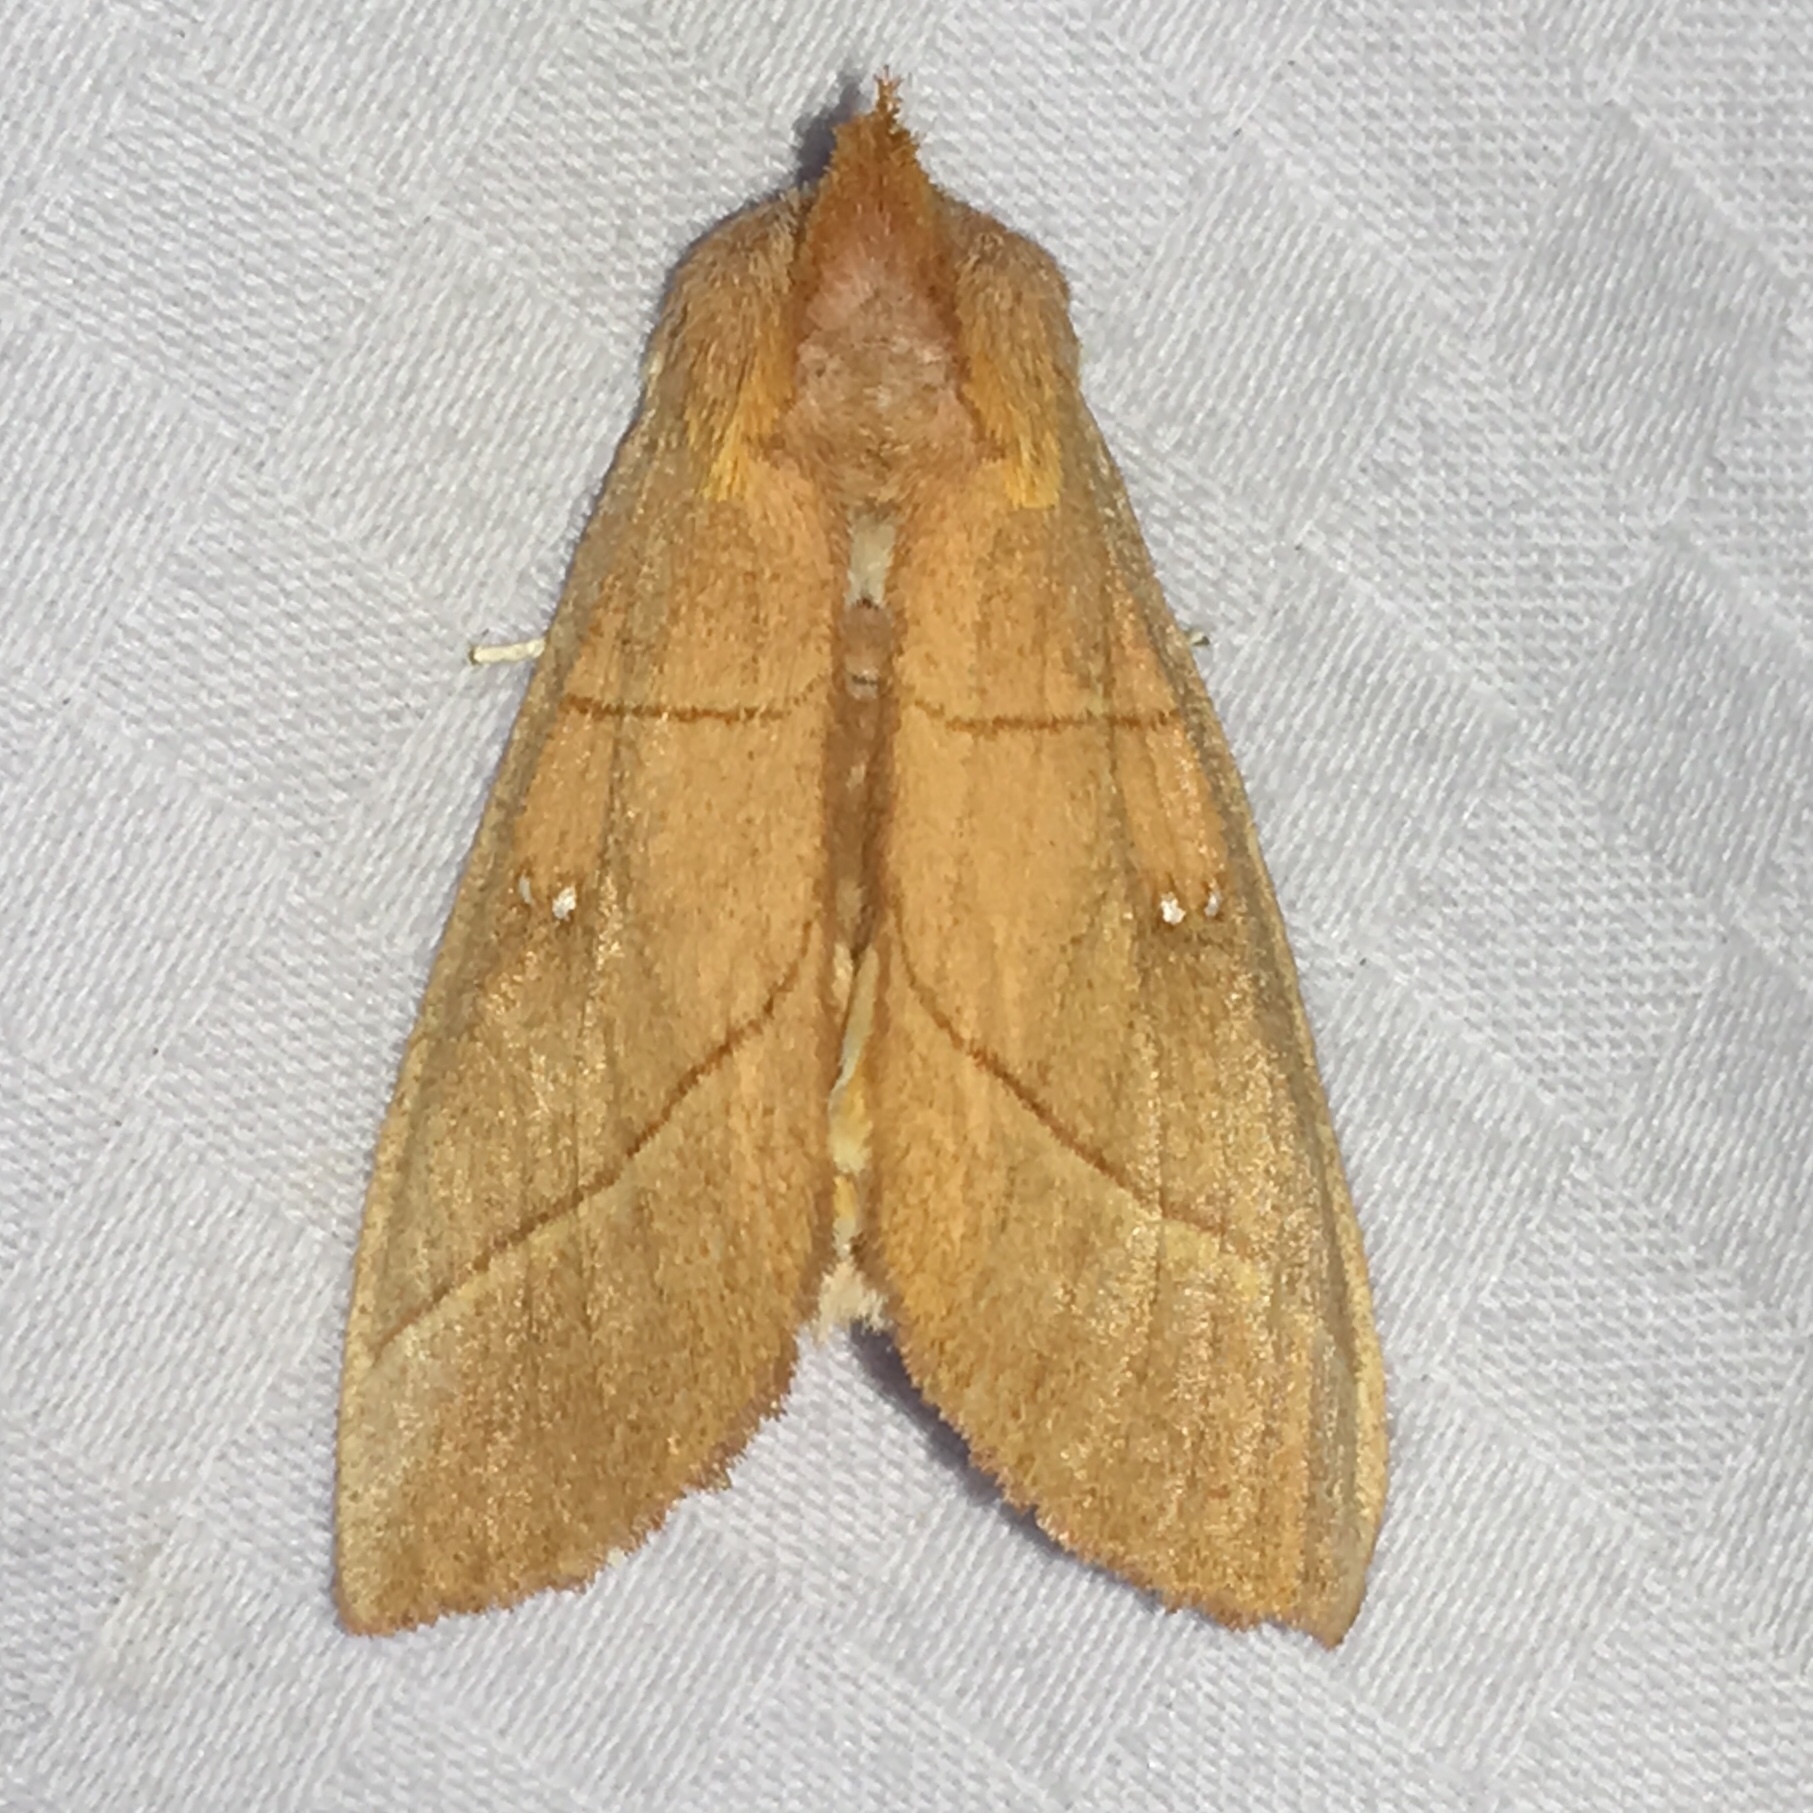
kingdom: Animalia
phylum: Arthropoda
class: Insecta
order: Lepidoptera
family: Notodontidae
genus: Nadata
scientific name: Nadata gibbosa
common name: White-dotted prominent
